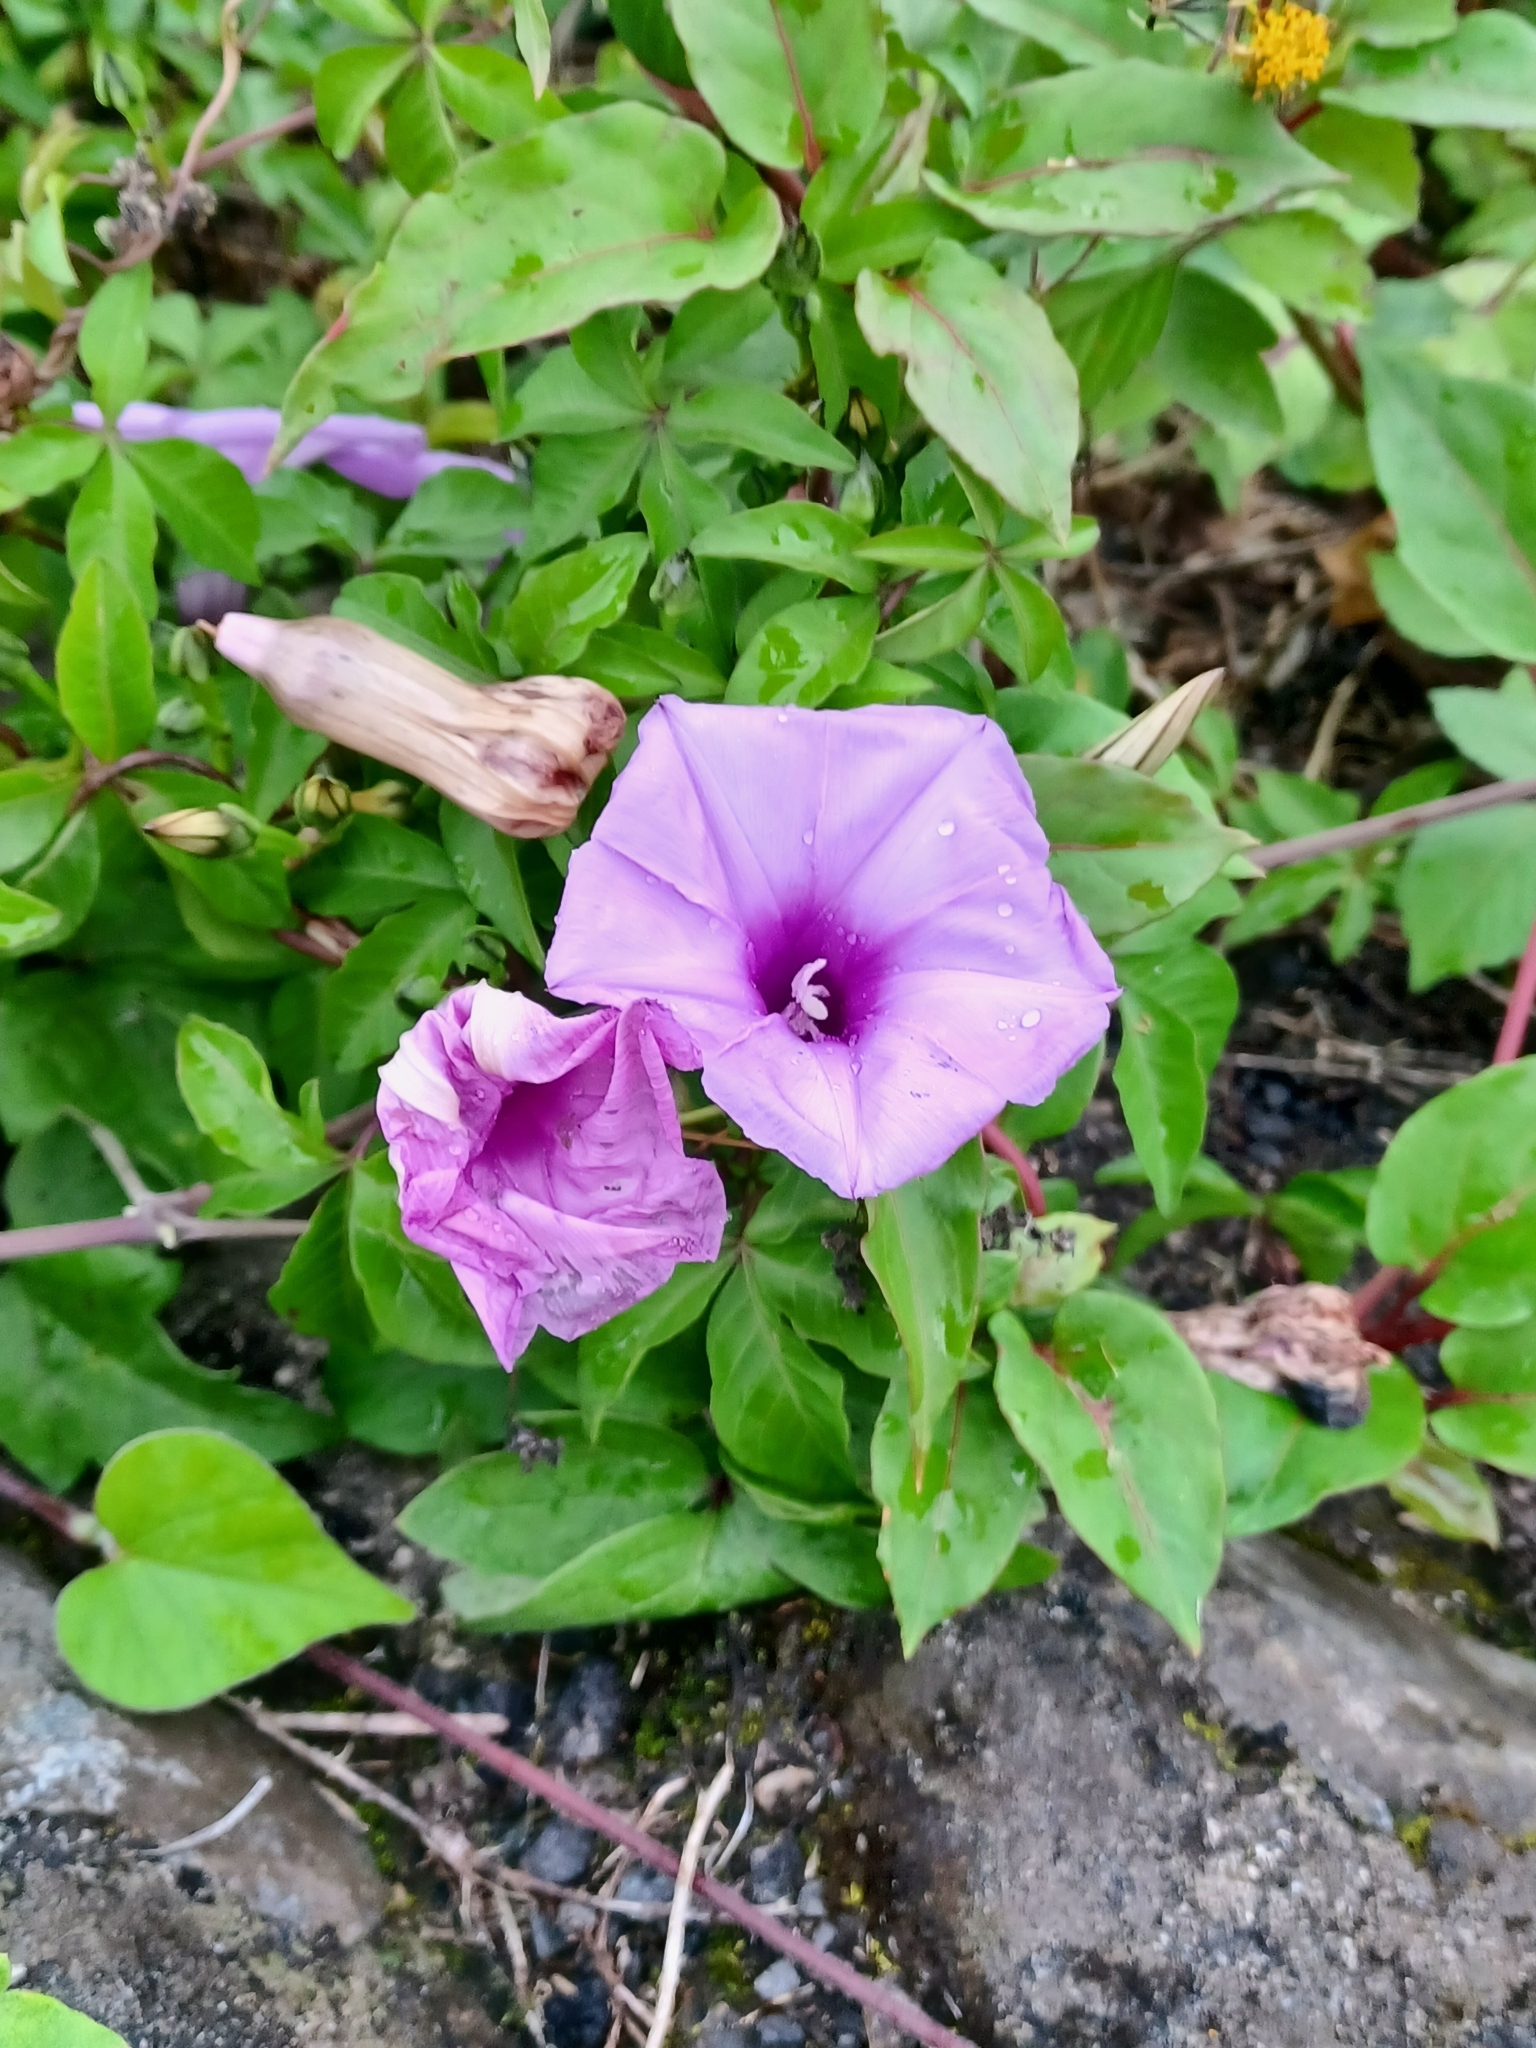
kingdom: Plantae
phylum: Tracheophyta
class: Magnoliopsida
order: Solanales
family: Convolvulaceae
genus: Ipomoea
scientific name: Ipomoea cairica
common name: Mile a minute vine
